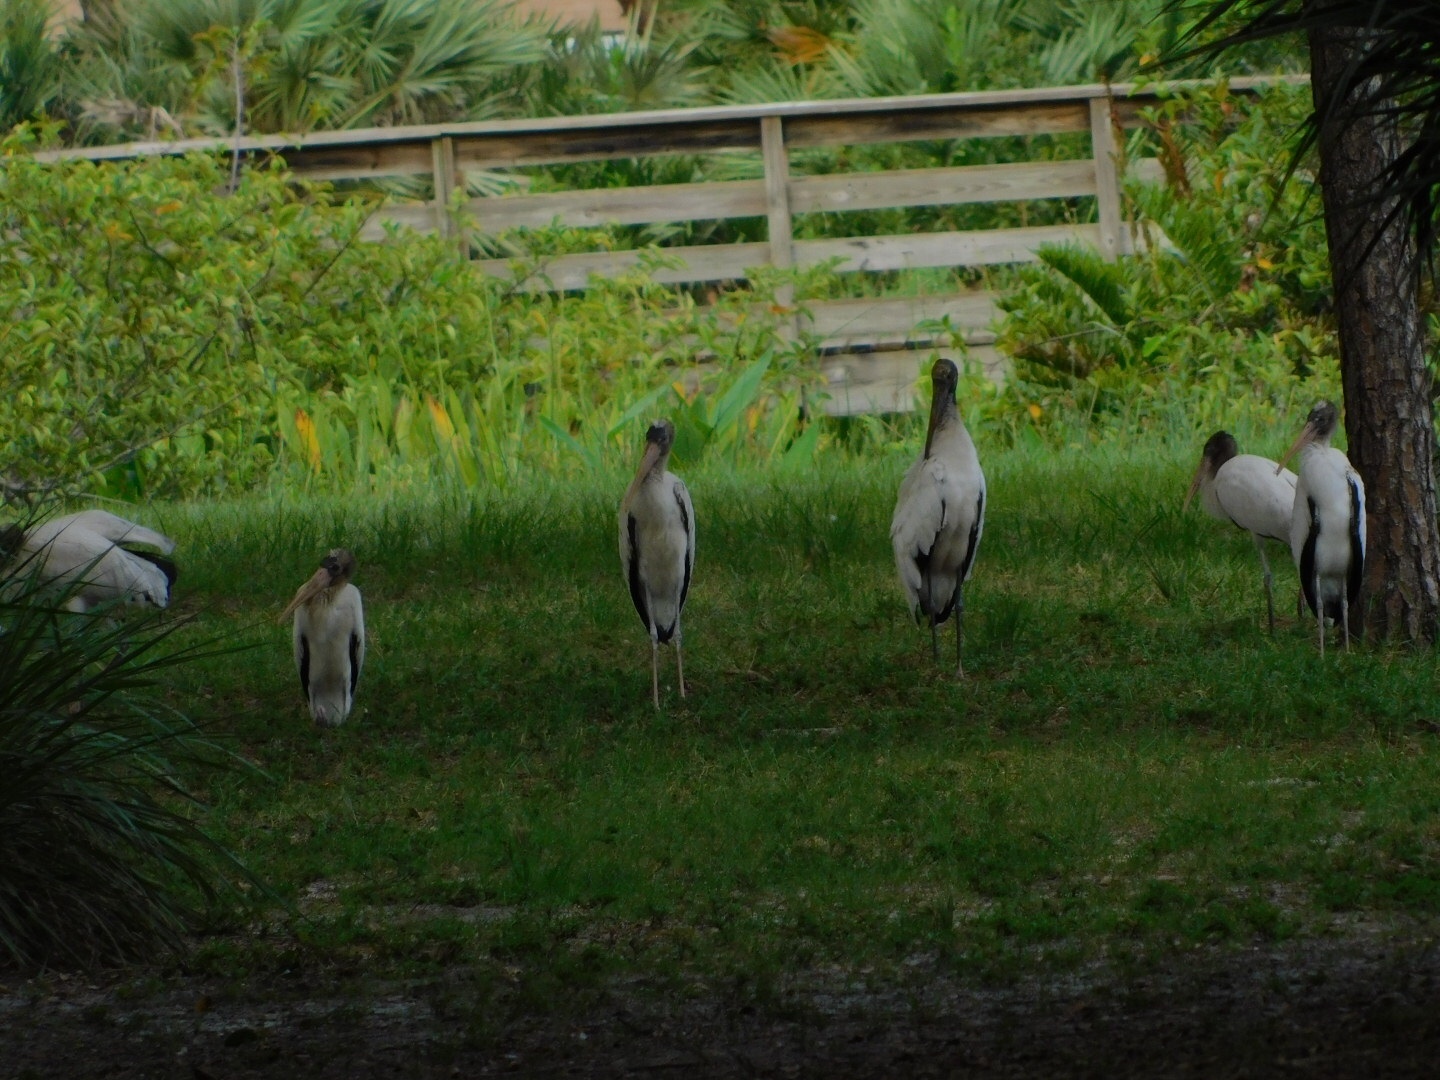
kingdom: Animalia
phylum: Chordata
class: Aves
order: Ciconiiformes
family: Ciconiidae
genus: Mycteria
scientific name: Mycteria americana
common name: Wood stork
